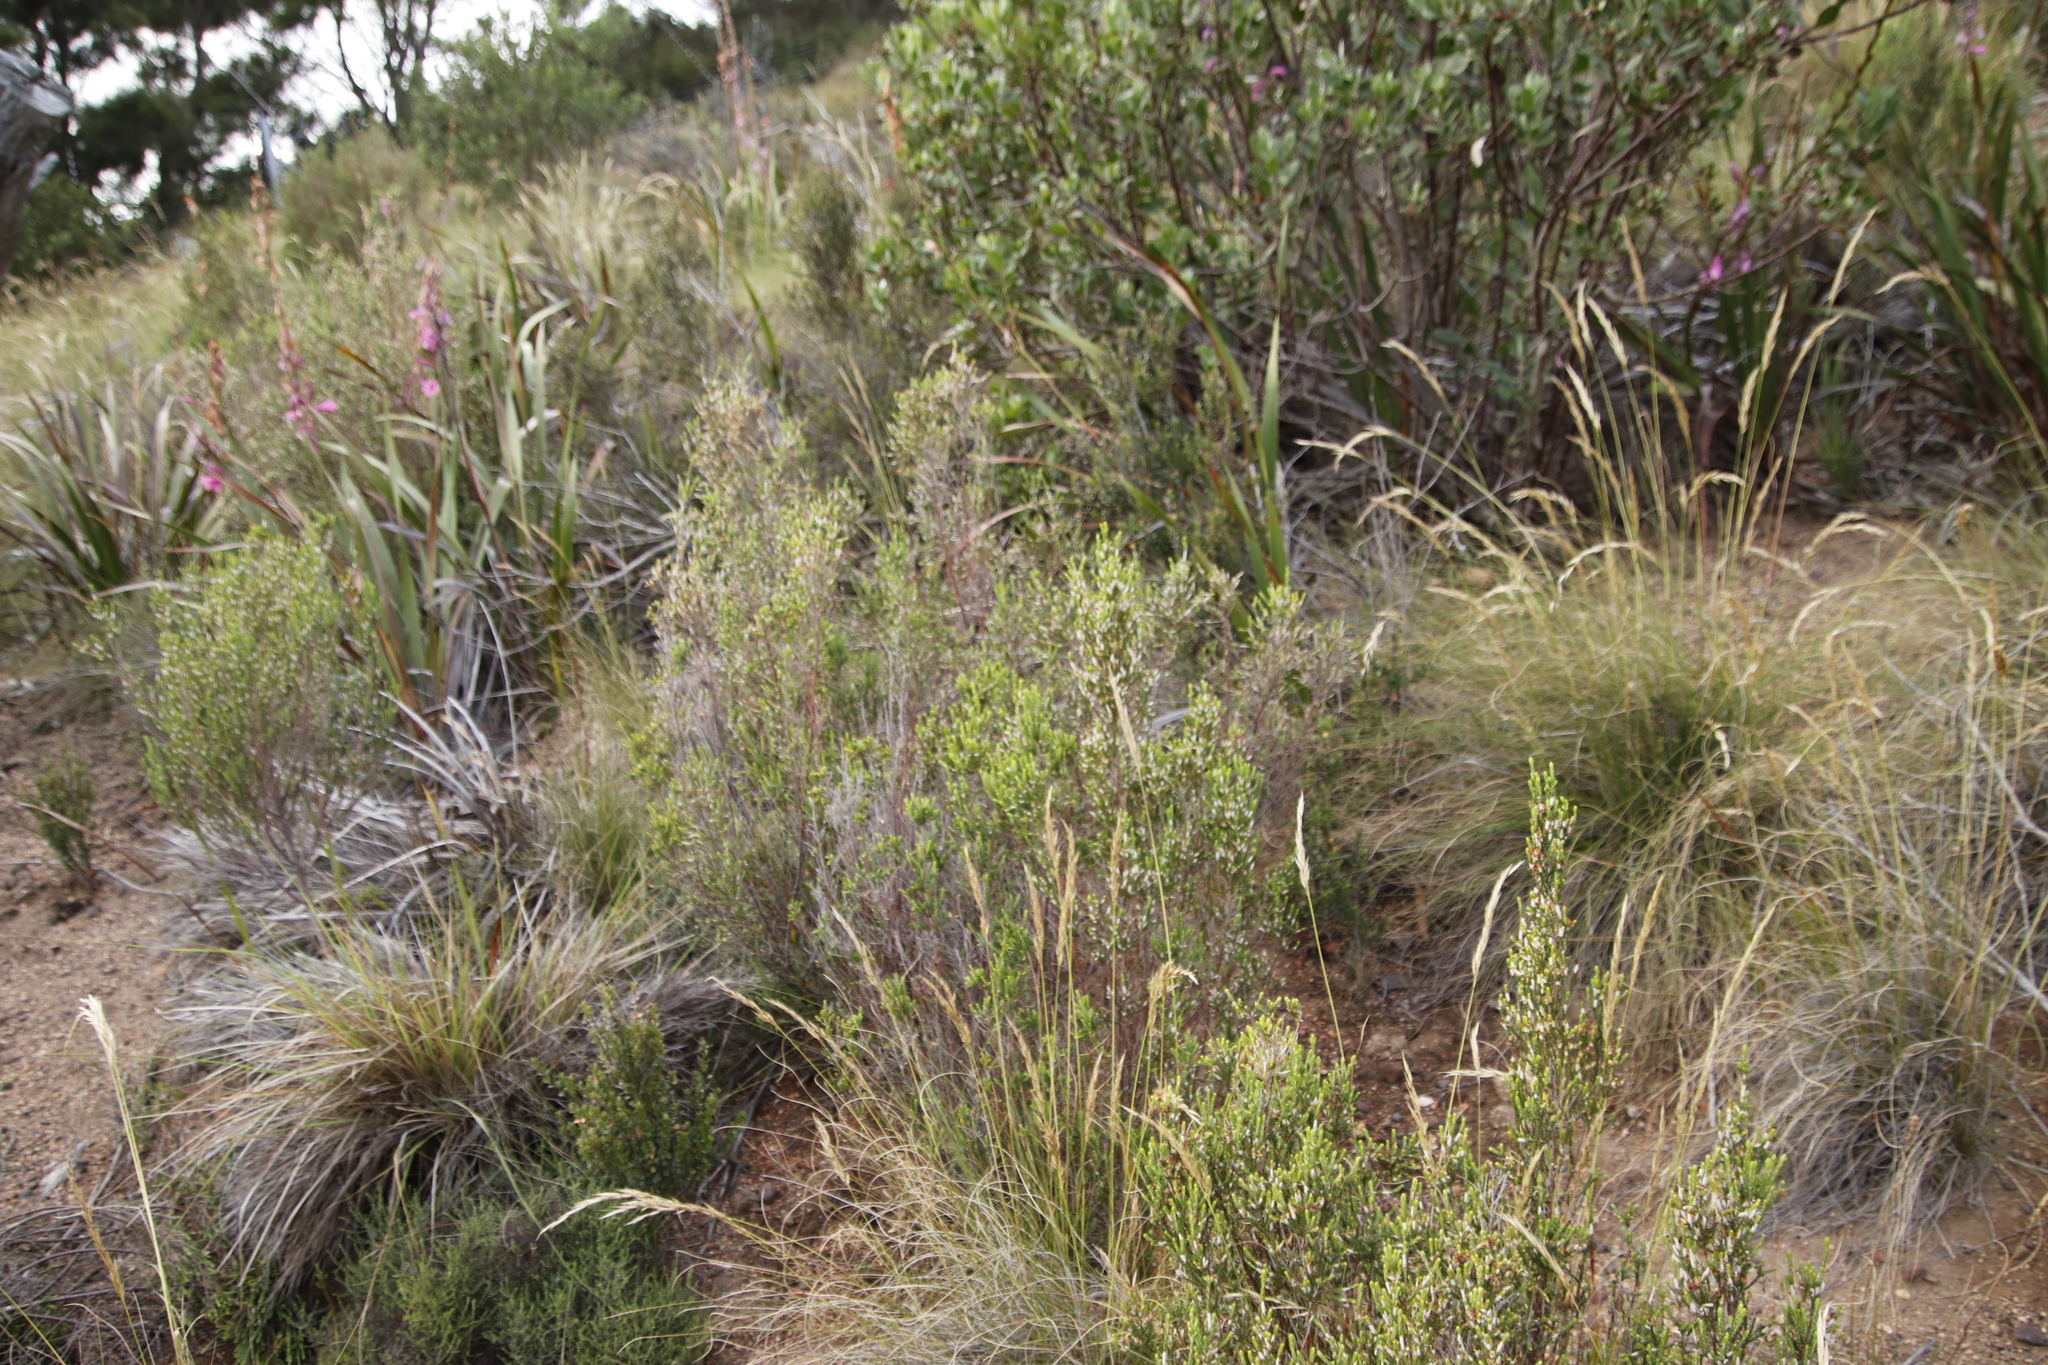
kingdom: Plantae
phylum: Tracheophyta
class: Magnoliopsida
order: Malvales
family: Thymelaeaceae
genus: Passerina
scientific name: Passerina corymbosa
